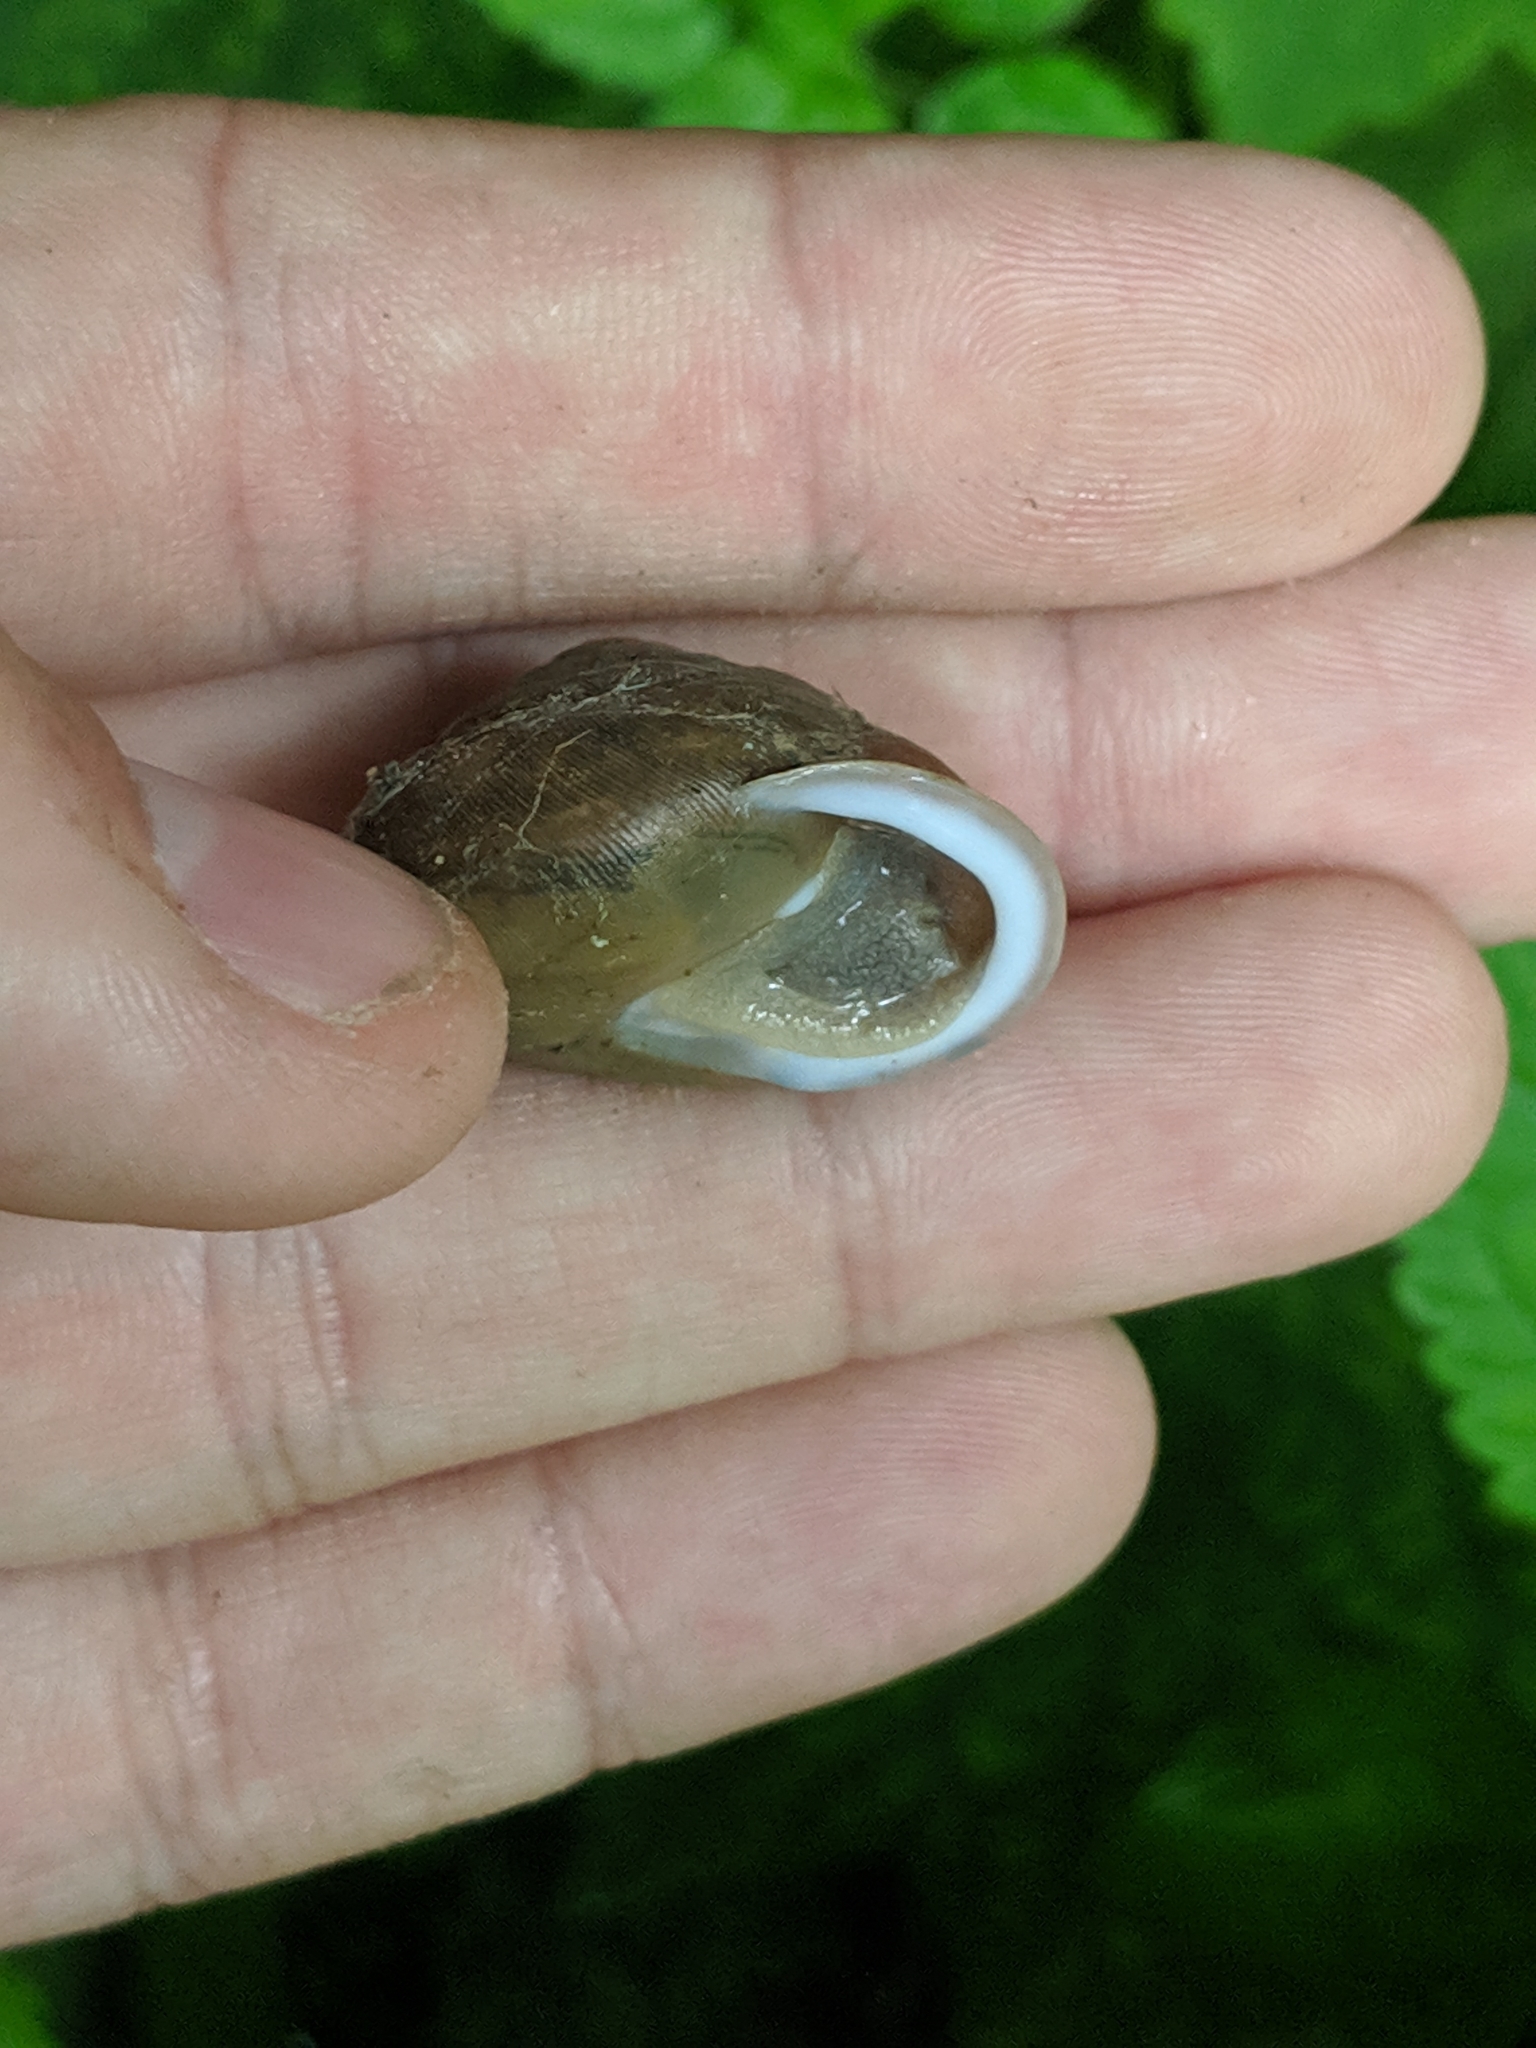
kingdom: Animalia
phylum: Mollusca
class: Gastropoda
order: Stylommatophora
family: Polygyridae
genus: Mesodon
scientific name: Mesodon thyroidus
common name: White-lip globe
